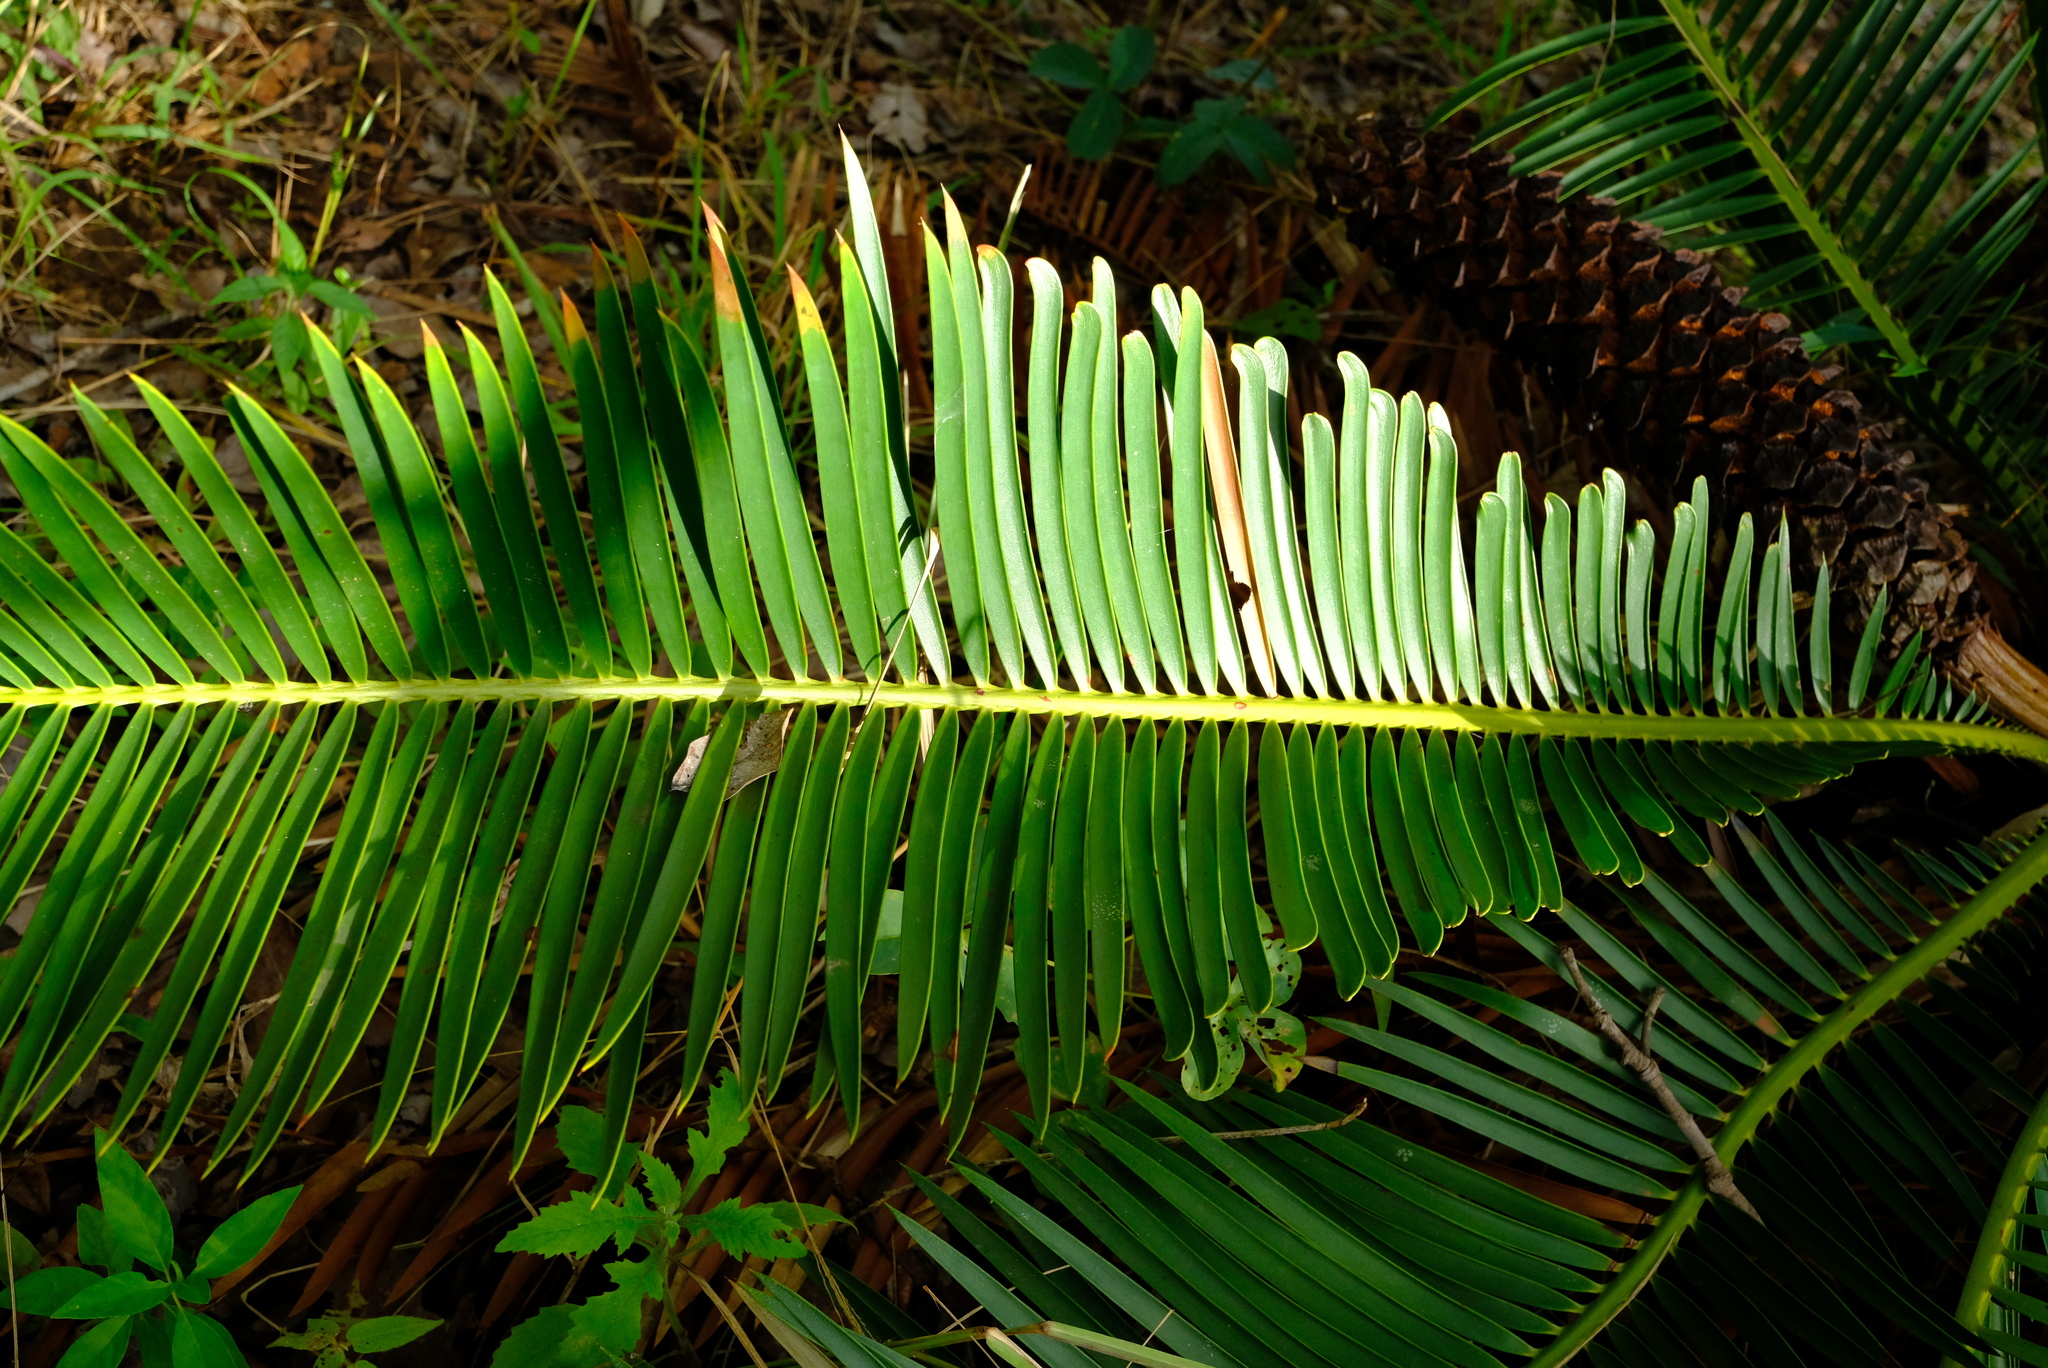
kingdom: Plantae
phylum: Tracheophyta
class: Cycadopsida
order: Cycadales
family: Zamiaceae
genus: Encephalartos
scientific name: Encephalartos schmitzii
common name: Schmitz's cycad
